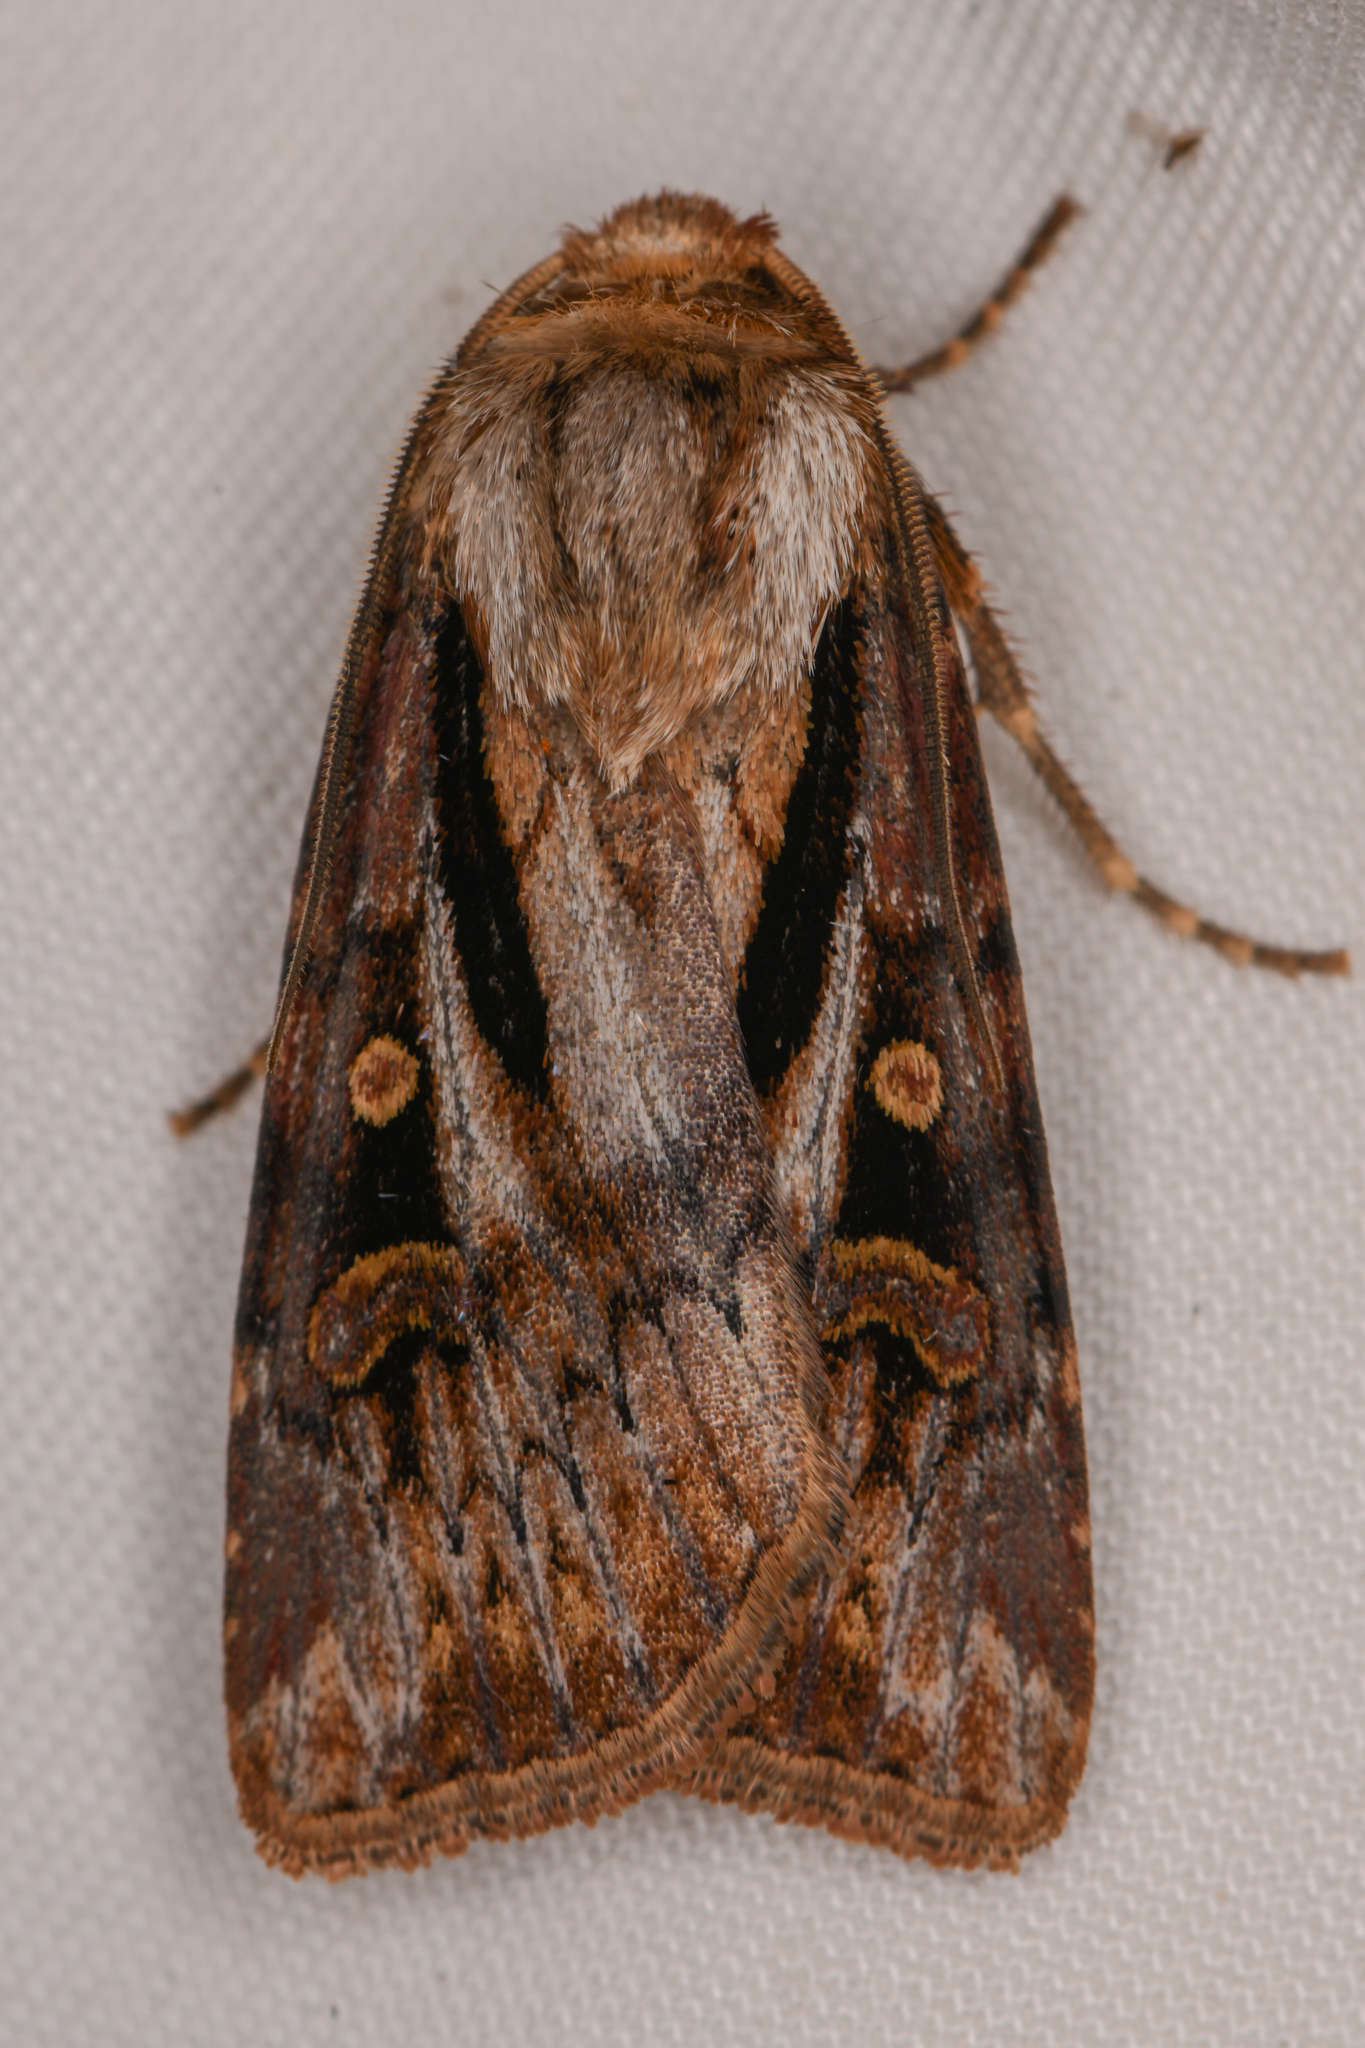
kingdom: Animalia
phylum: Arthropoda
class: Insecta
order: Lepidoptera
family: Noctuidae
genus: Agrotis
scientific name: Agrotis vancouverensis
